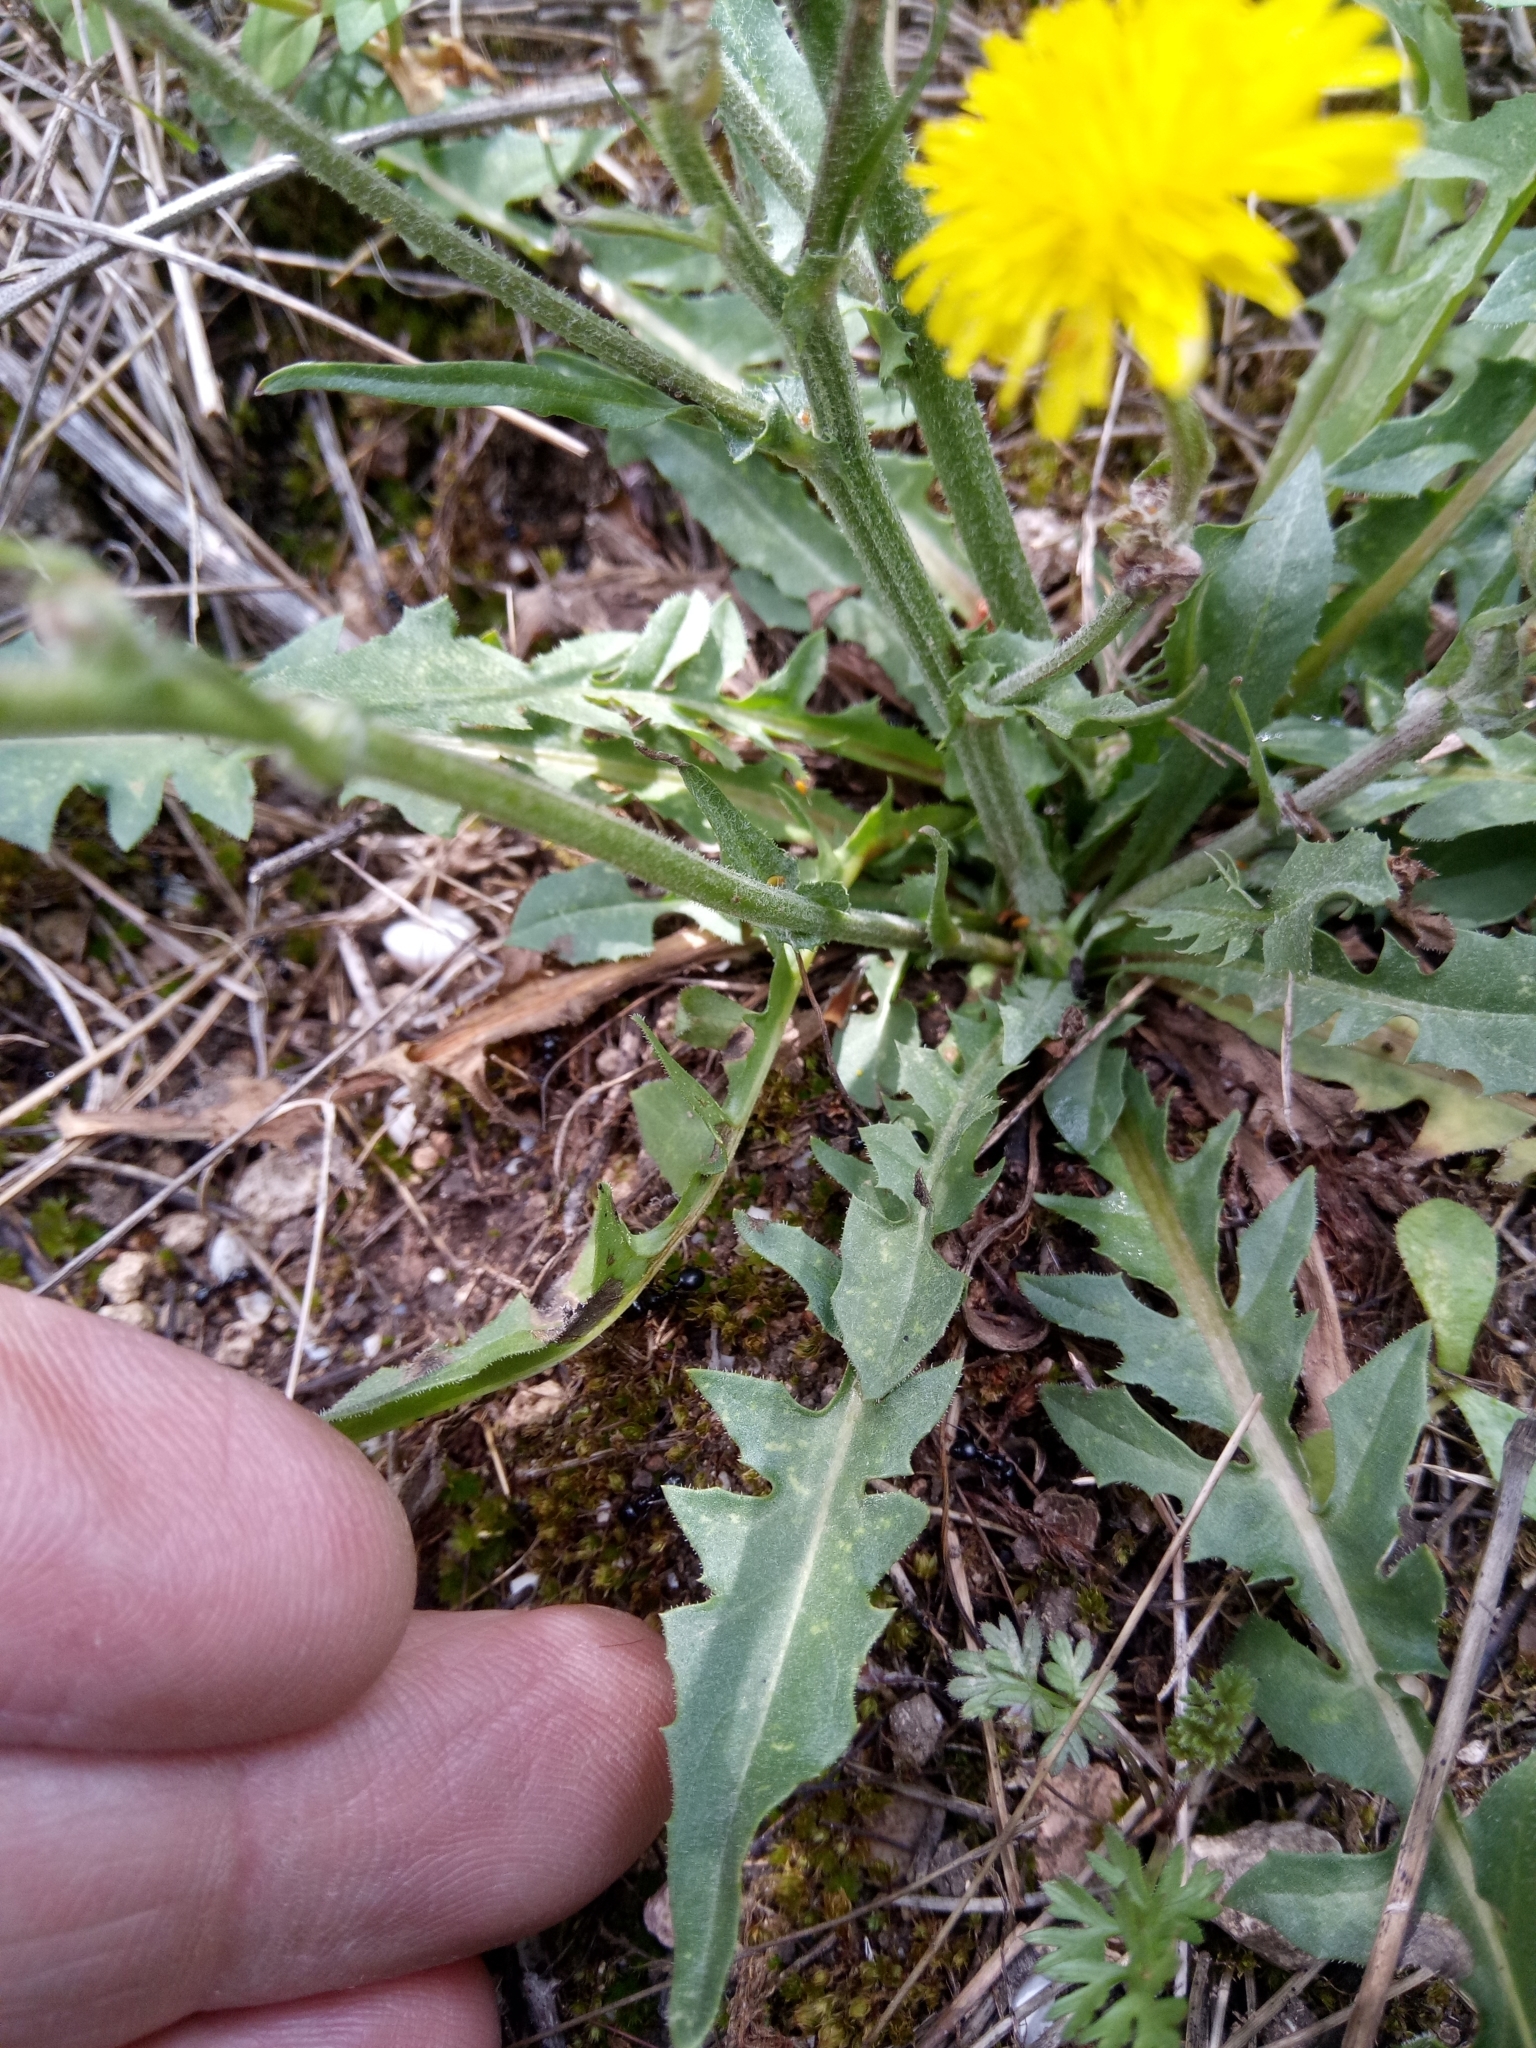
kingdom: Plantae
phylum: Tracheophyta
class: Magnoliopsida
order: Asterales
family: Asteraceae
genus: Crepis
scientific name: Crepis vesicaria
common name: Beaked hawksbeard
